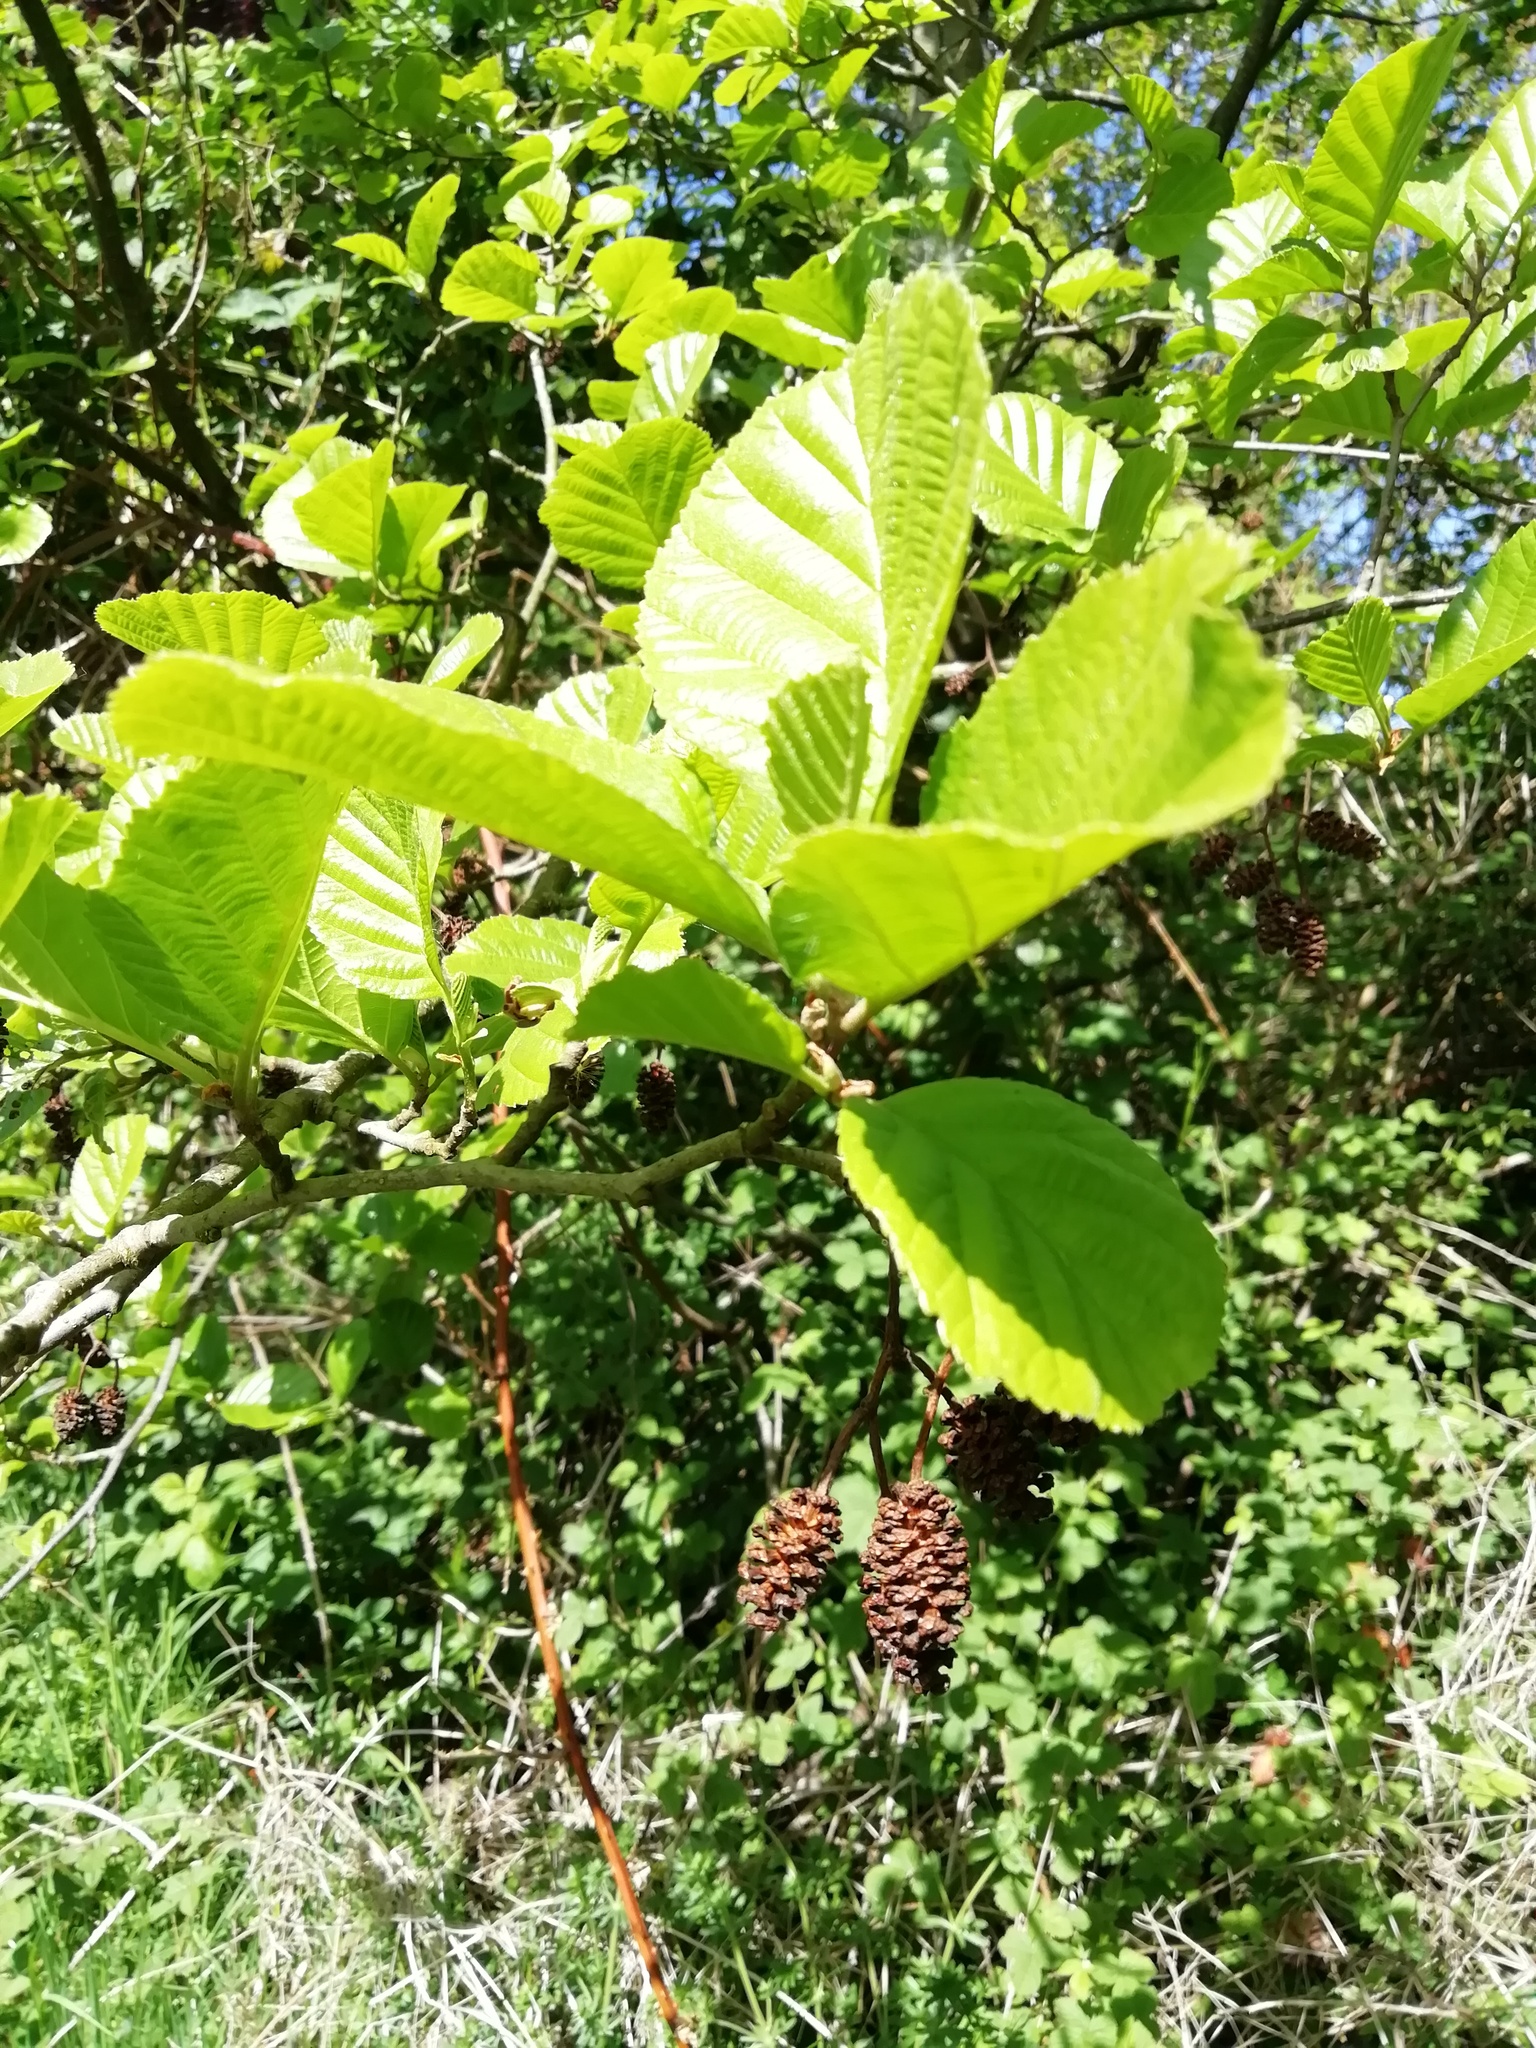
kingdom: Plantae
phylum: Tracheophyta
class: Magnoliopsida
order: Fagales
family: Betulaceae
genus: Alnus
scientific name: Alnus glutinosa
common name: Black alder
